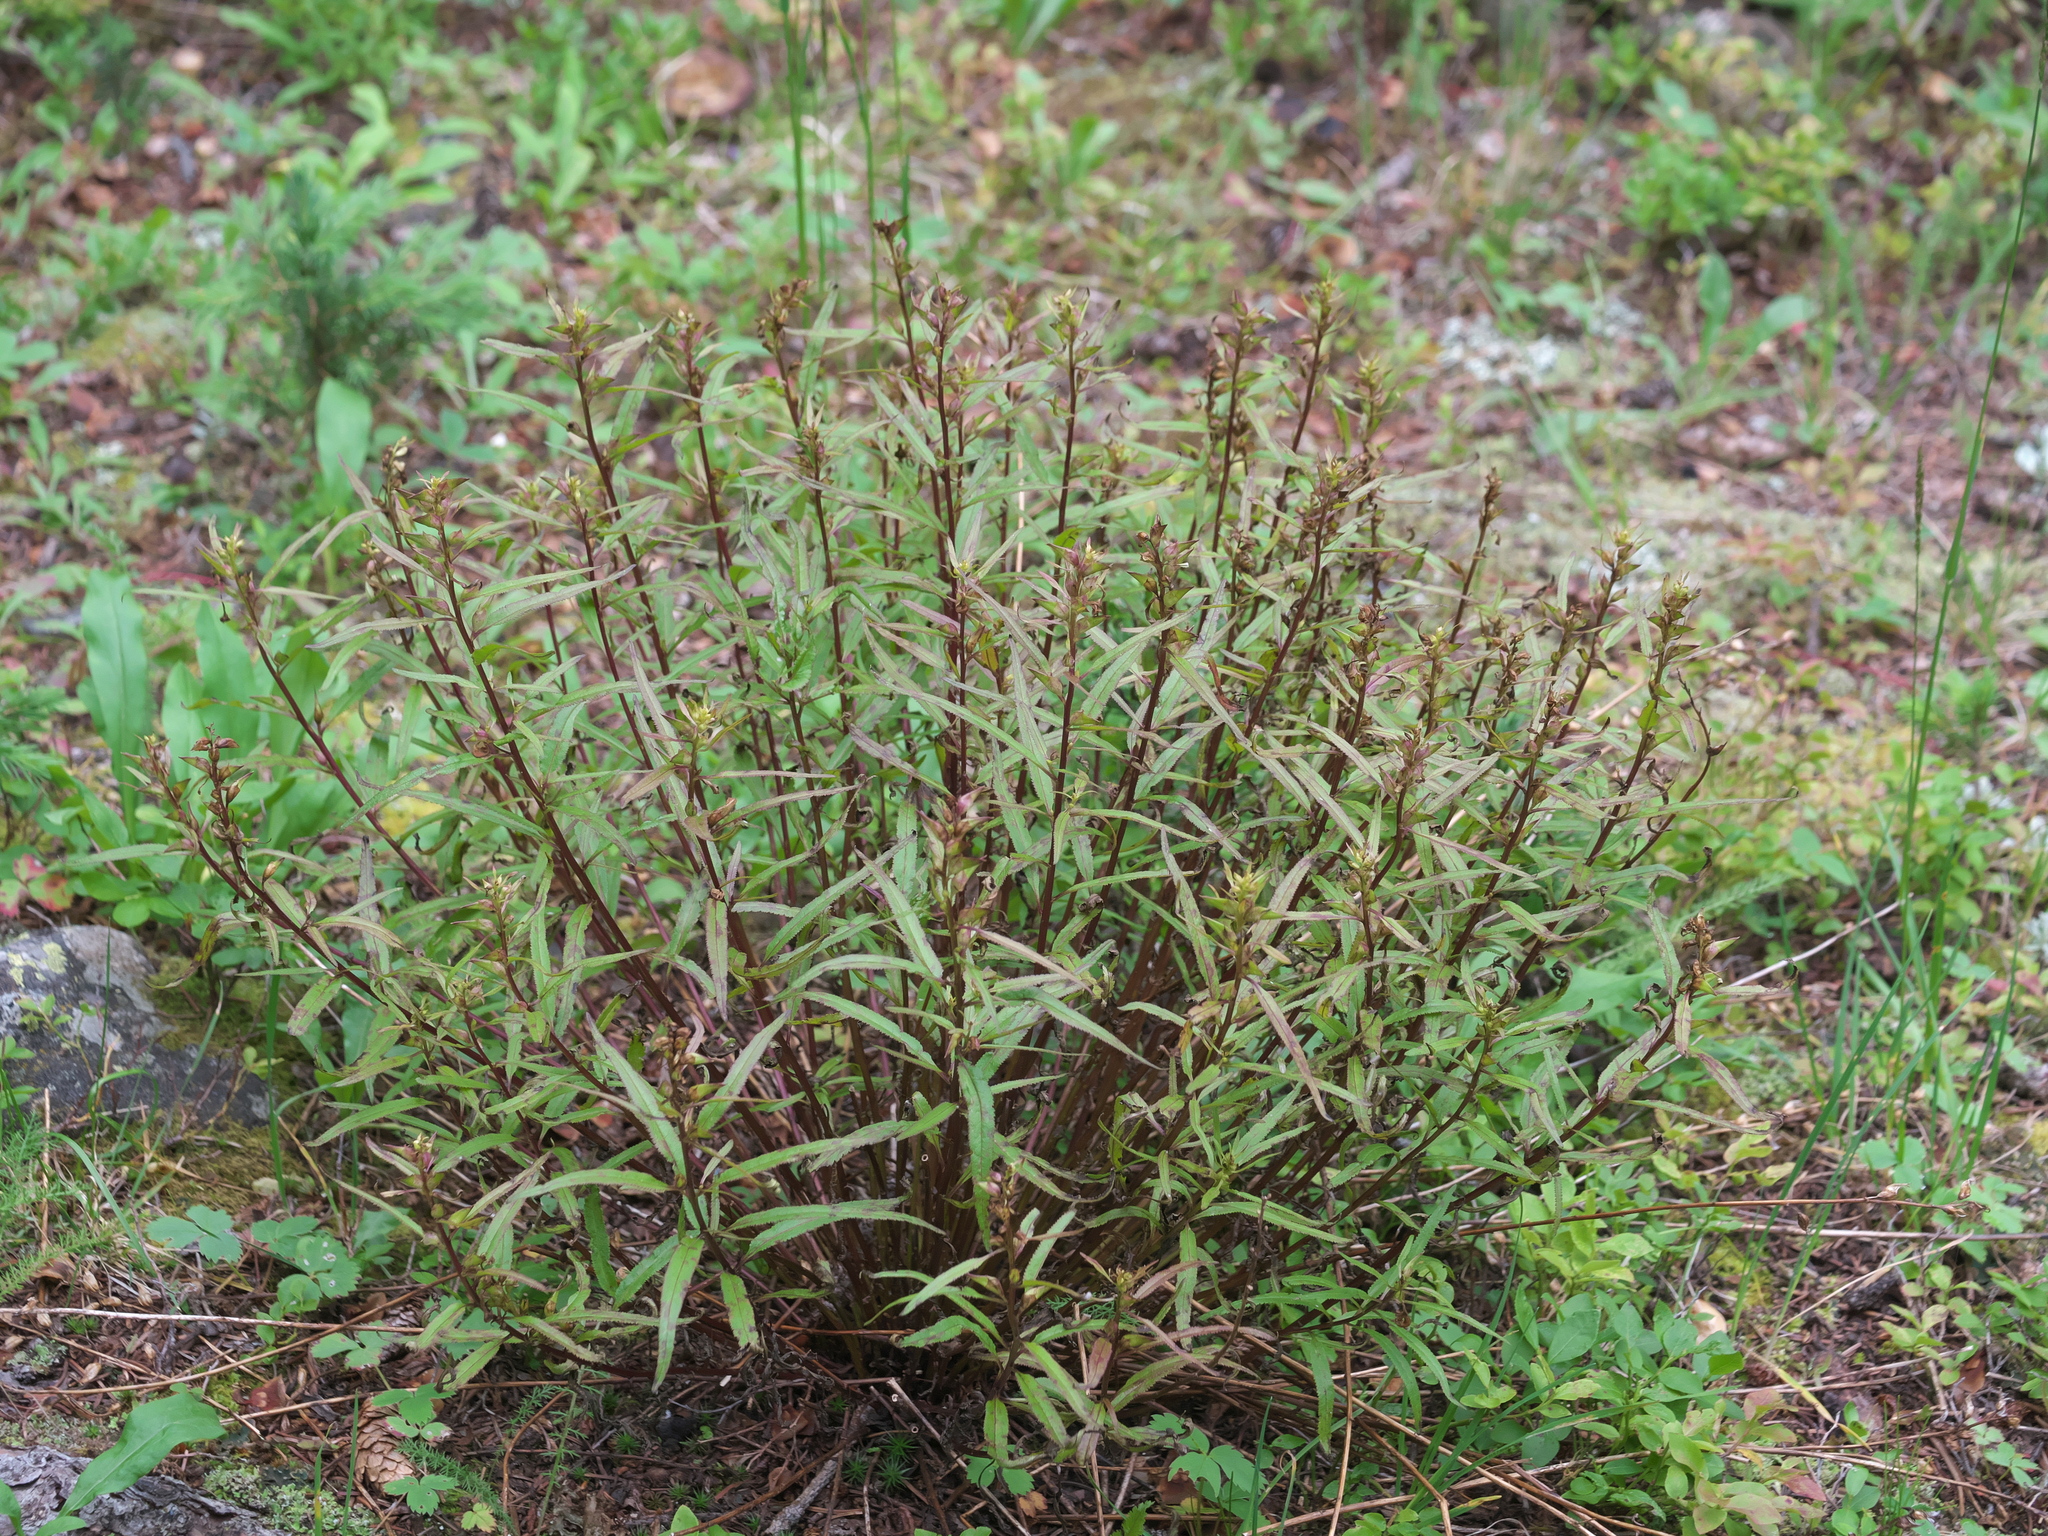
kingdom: Plantae
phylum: Tracheophyta
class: Magnoliopsida
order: Lamiales
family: Orobanchaceae
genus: Pedicularis
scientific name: Pedicularis racemosa
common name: Leafy lousewort
